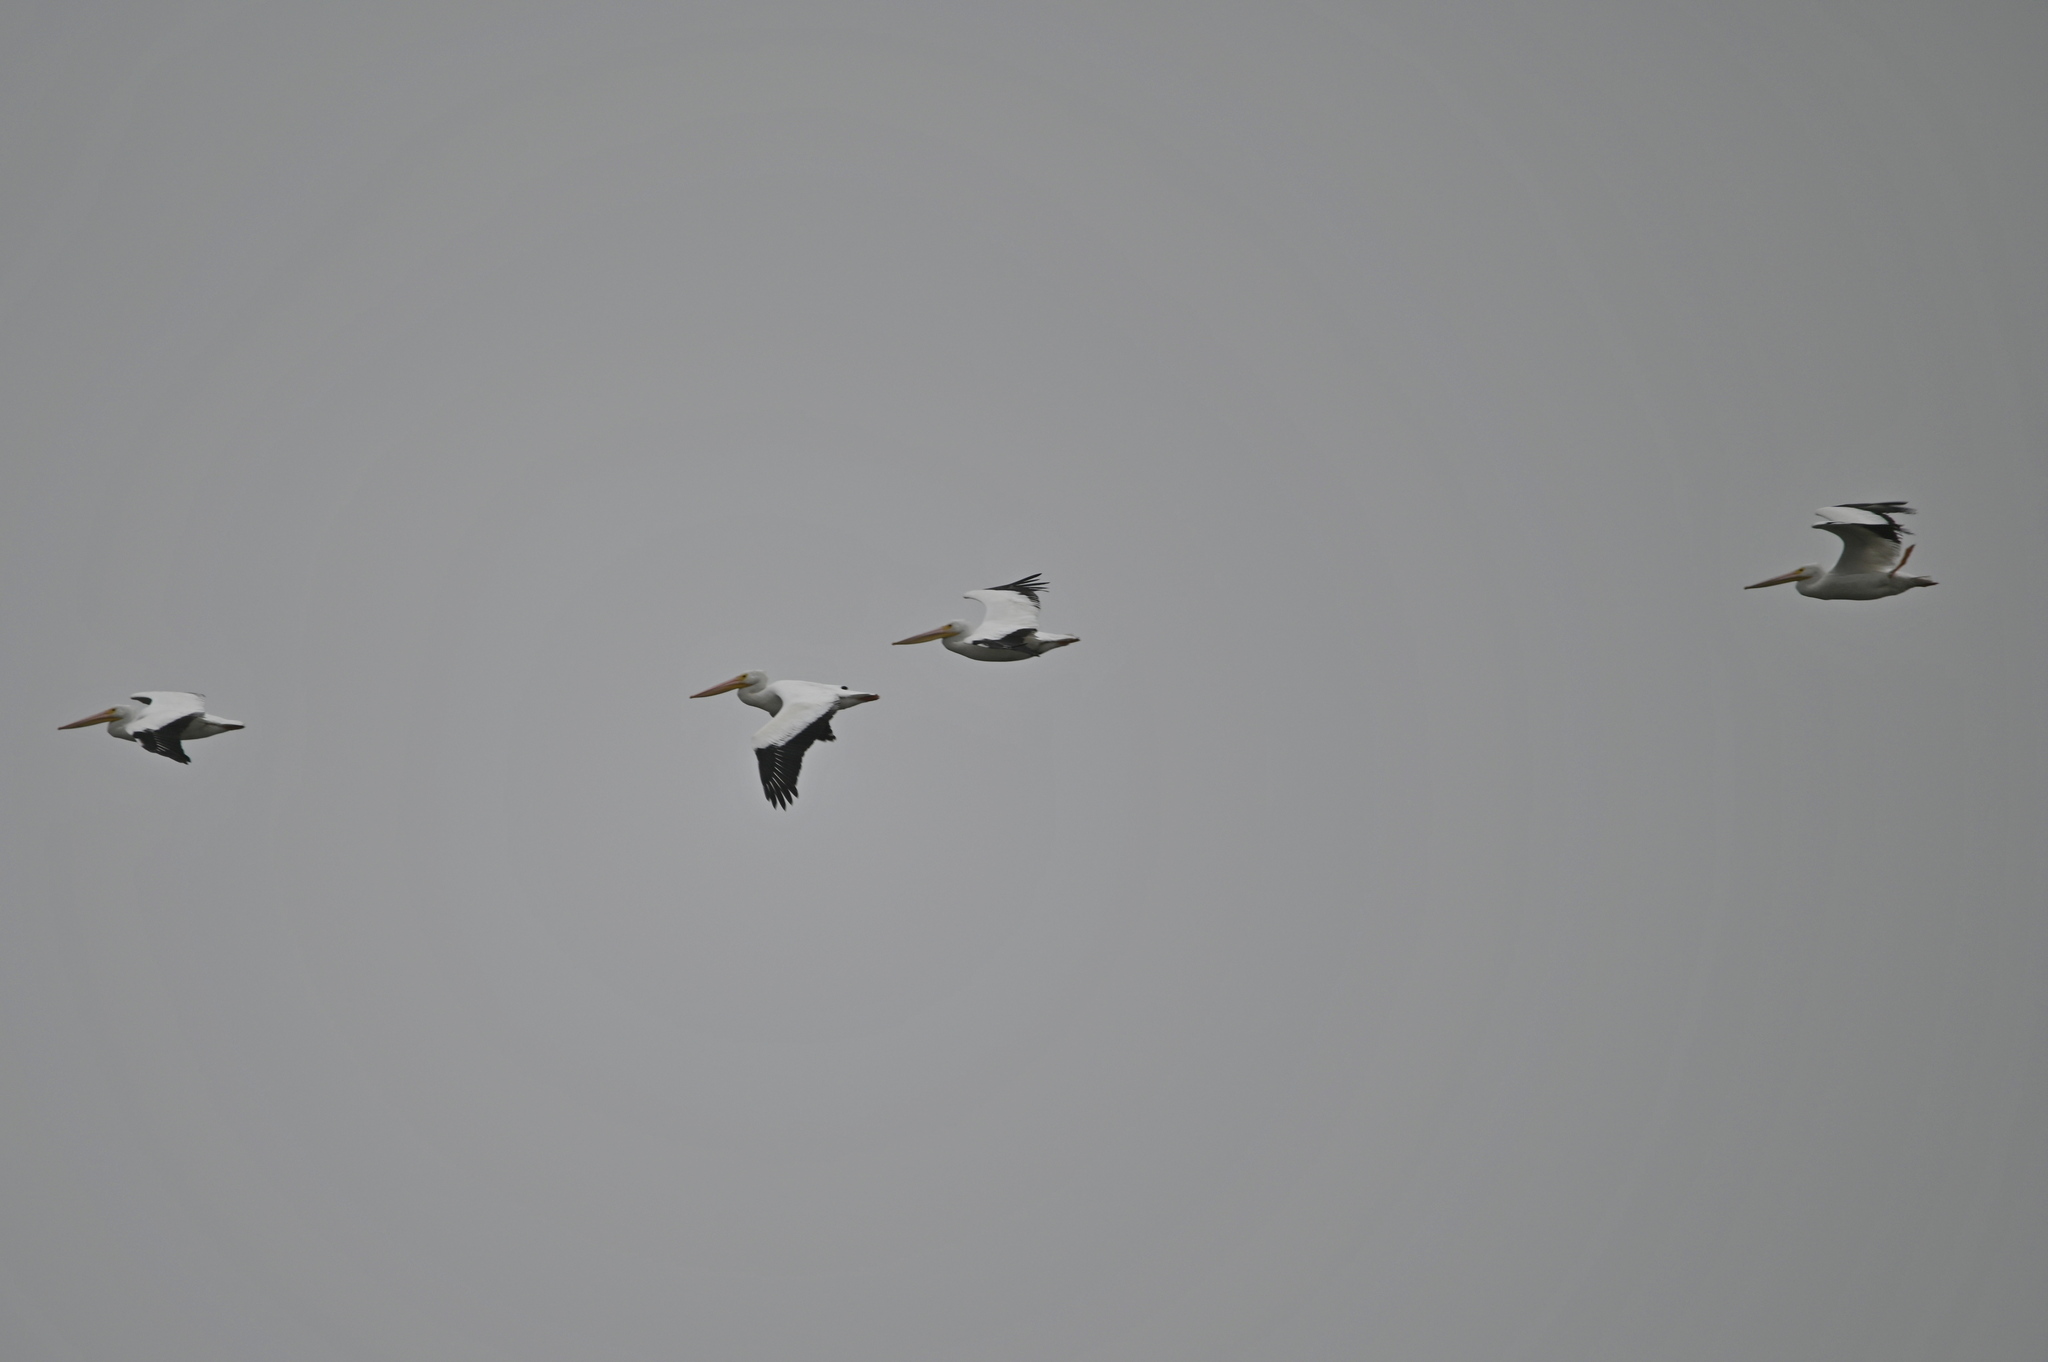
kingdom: Animalia
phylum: Chordata
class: Aves
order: Pelecaniformes
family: Pelecanidae
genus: Pelecanus
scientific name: Pelecanus erythrorhynchos
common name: American white pelican
